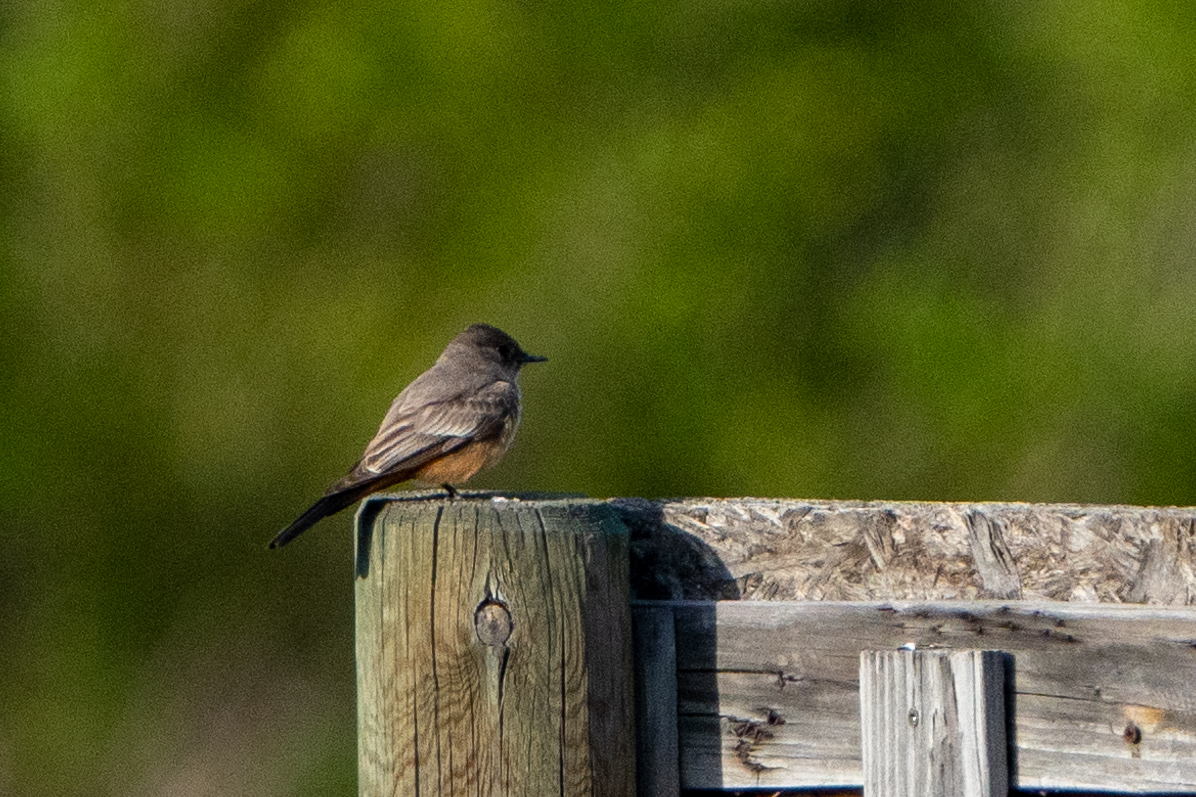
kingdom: Animalia
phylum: Chordata
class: Aves
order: Passeriformes
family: Tyrannidae
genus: Sayornis
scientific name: Sayornis saya
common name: Say's phoebe
